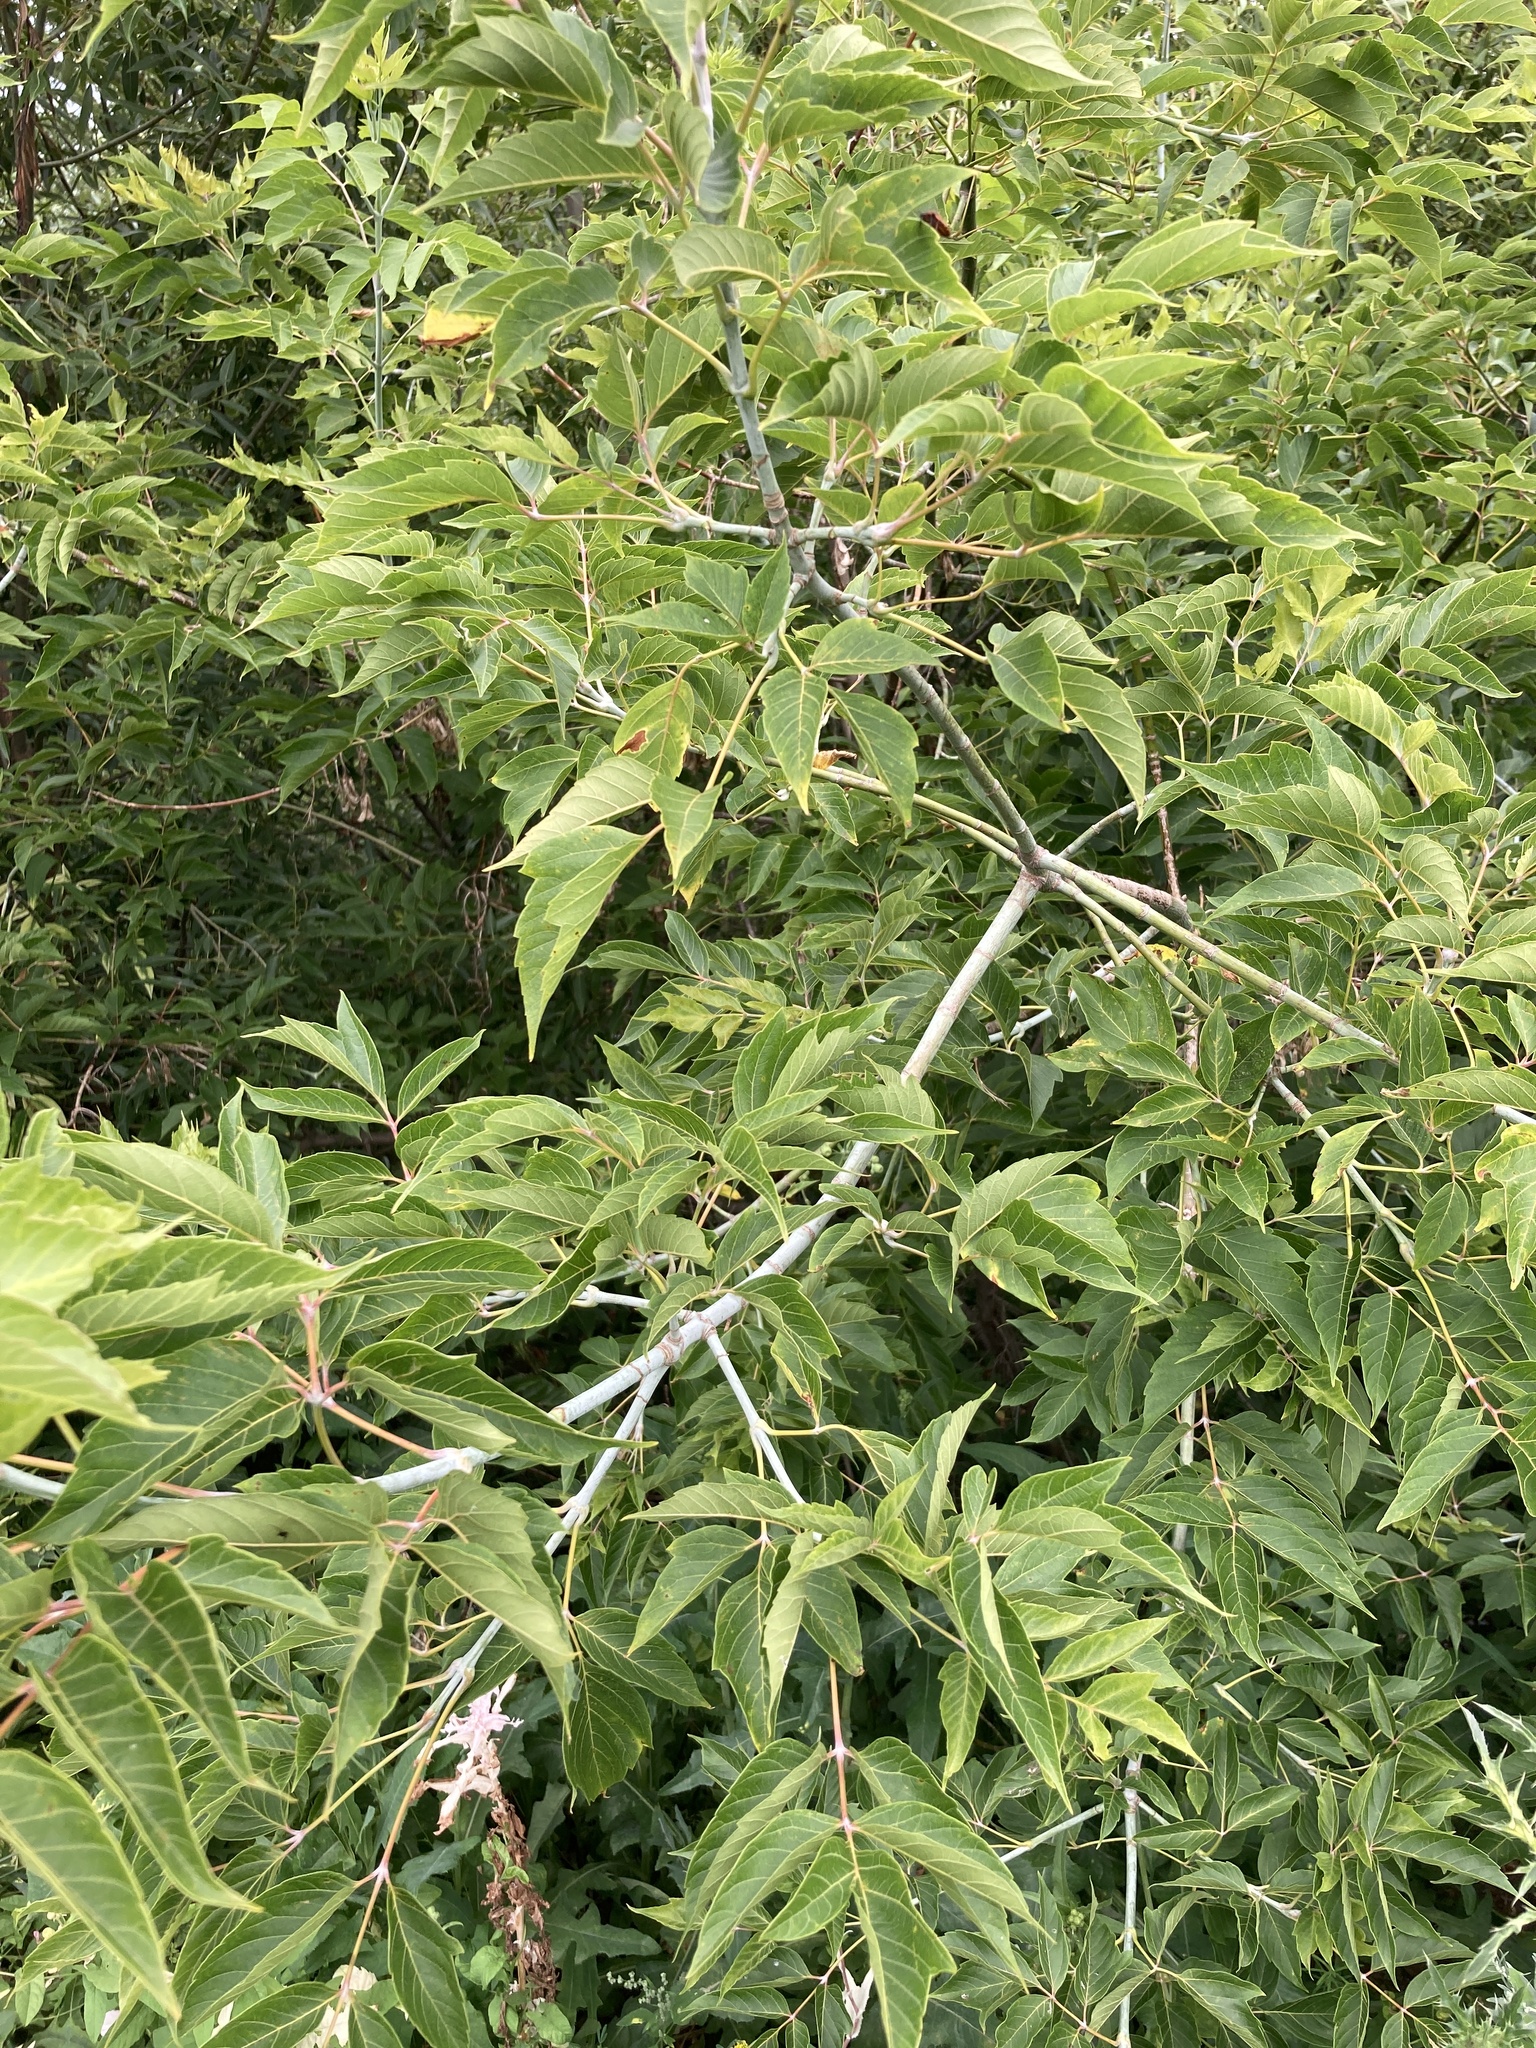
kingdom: Plantae
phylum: Tracheophyta
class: Magnoliopsida
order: Sapindales
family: Sapindaceae
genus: Acer
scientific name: Acer negundo
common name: Ashleaf maple
